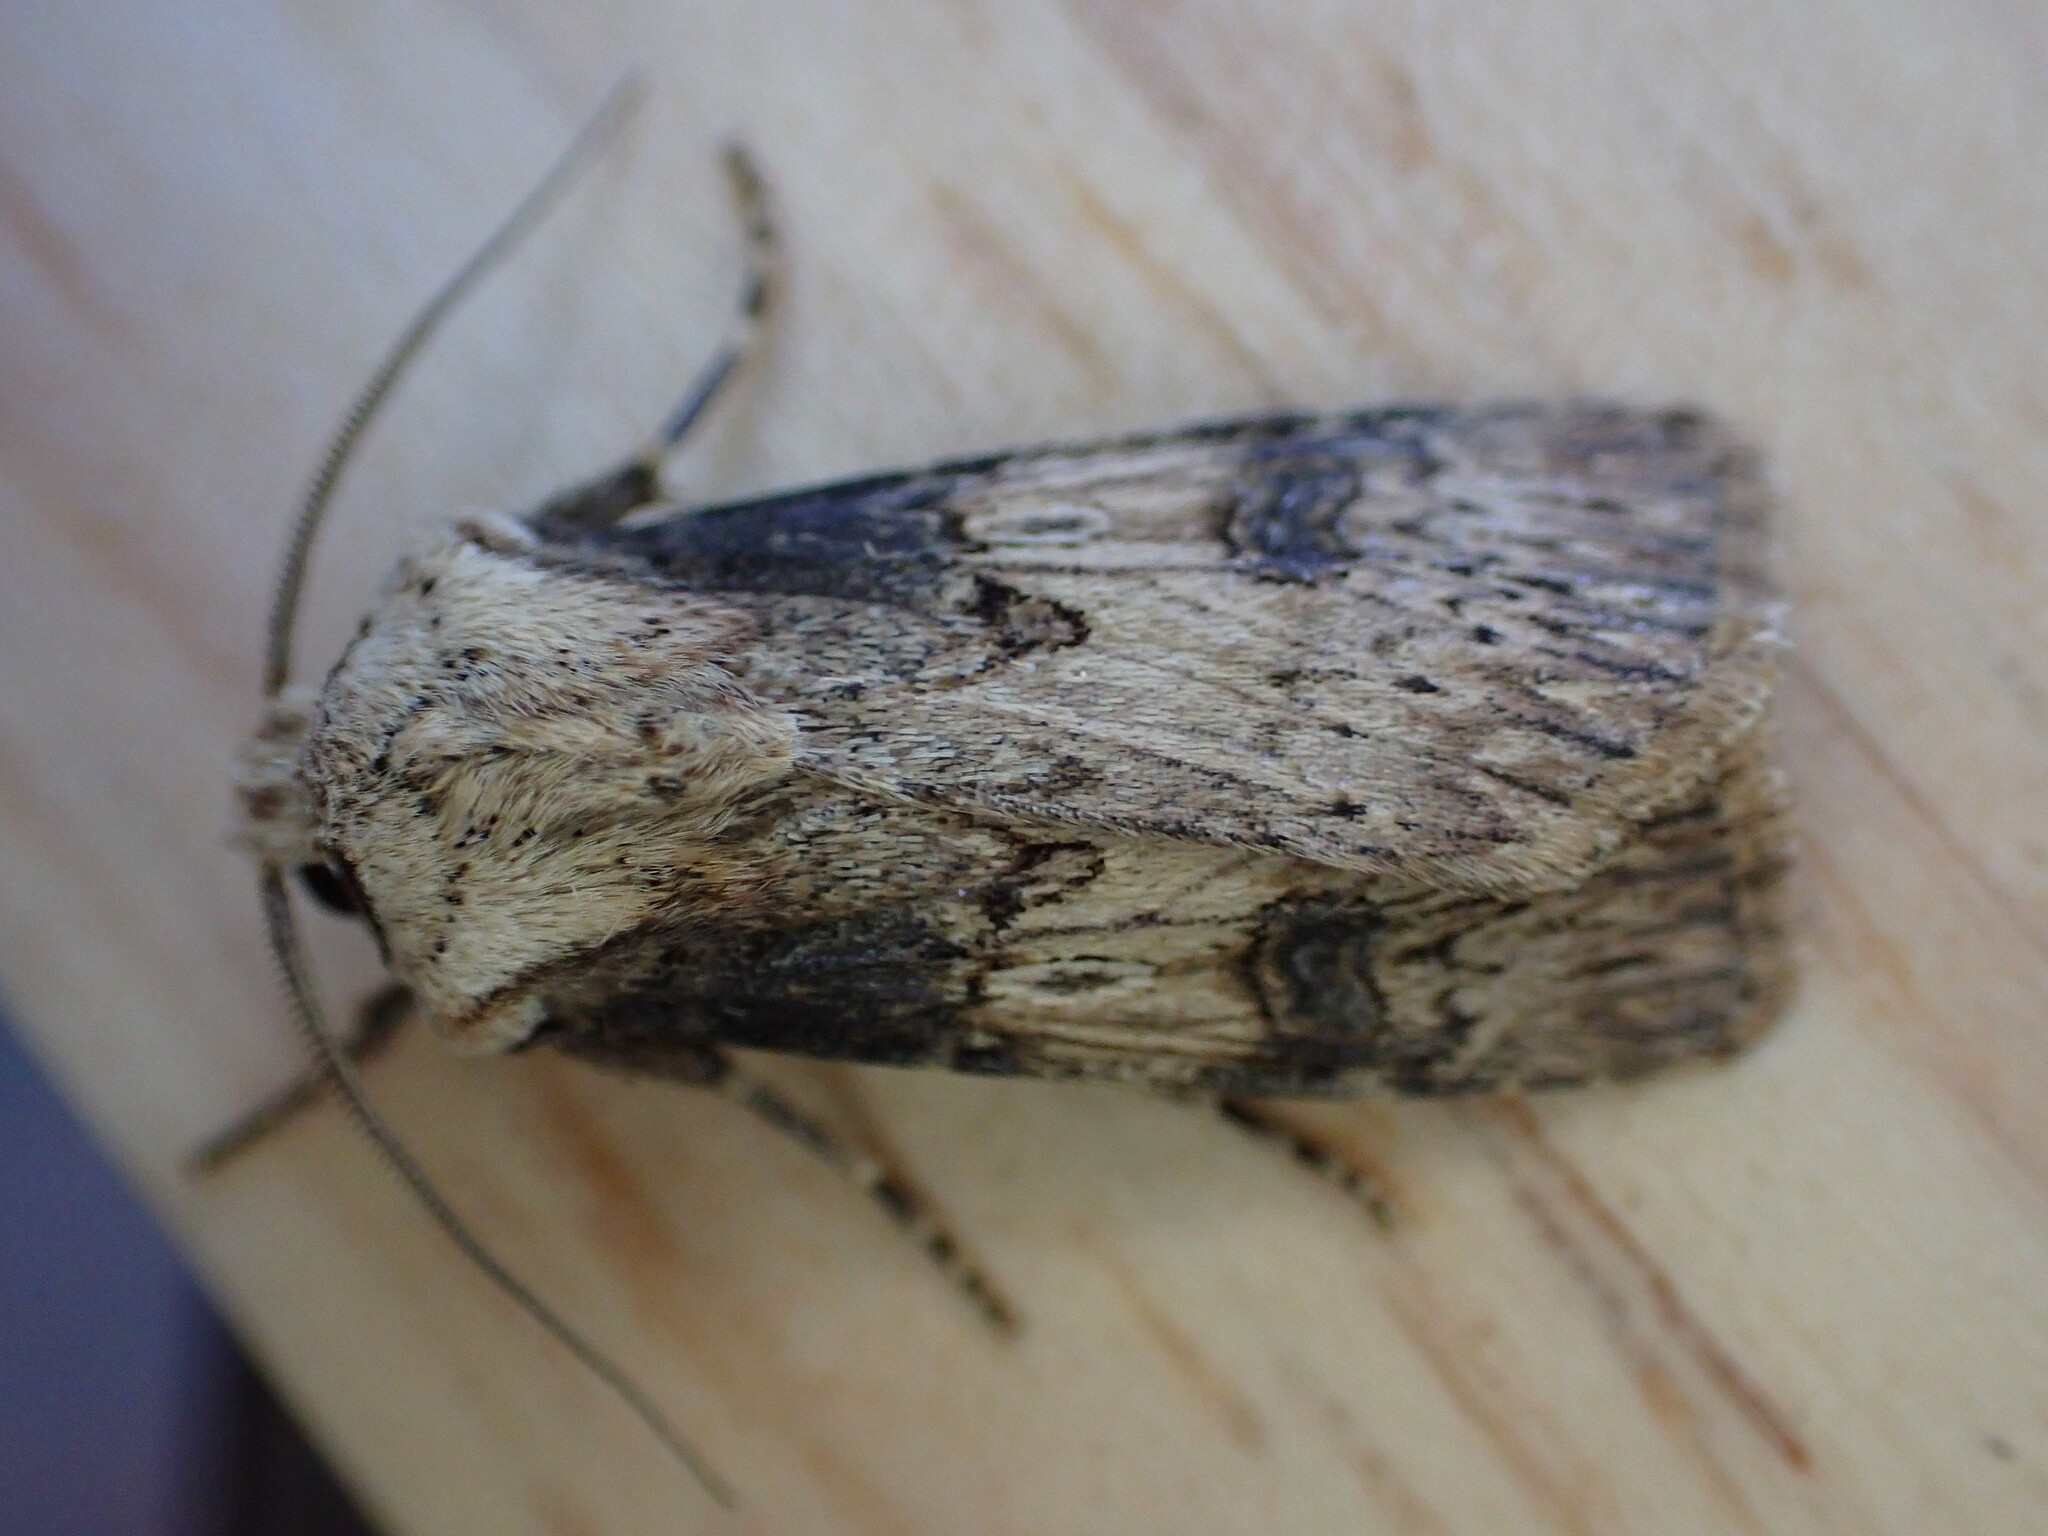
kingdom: Animalia
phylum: Arthropoda
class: Insecta
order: Lepidoptera
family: Noctuidae
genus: Agrotis
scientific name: Agrotis puta
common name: Shuttle-shaped dart
